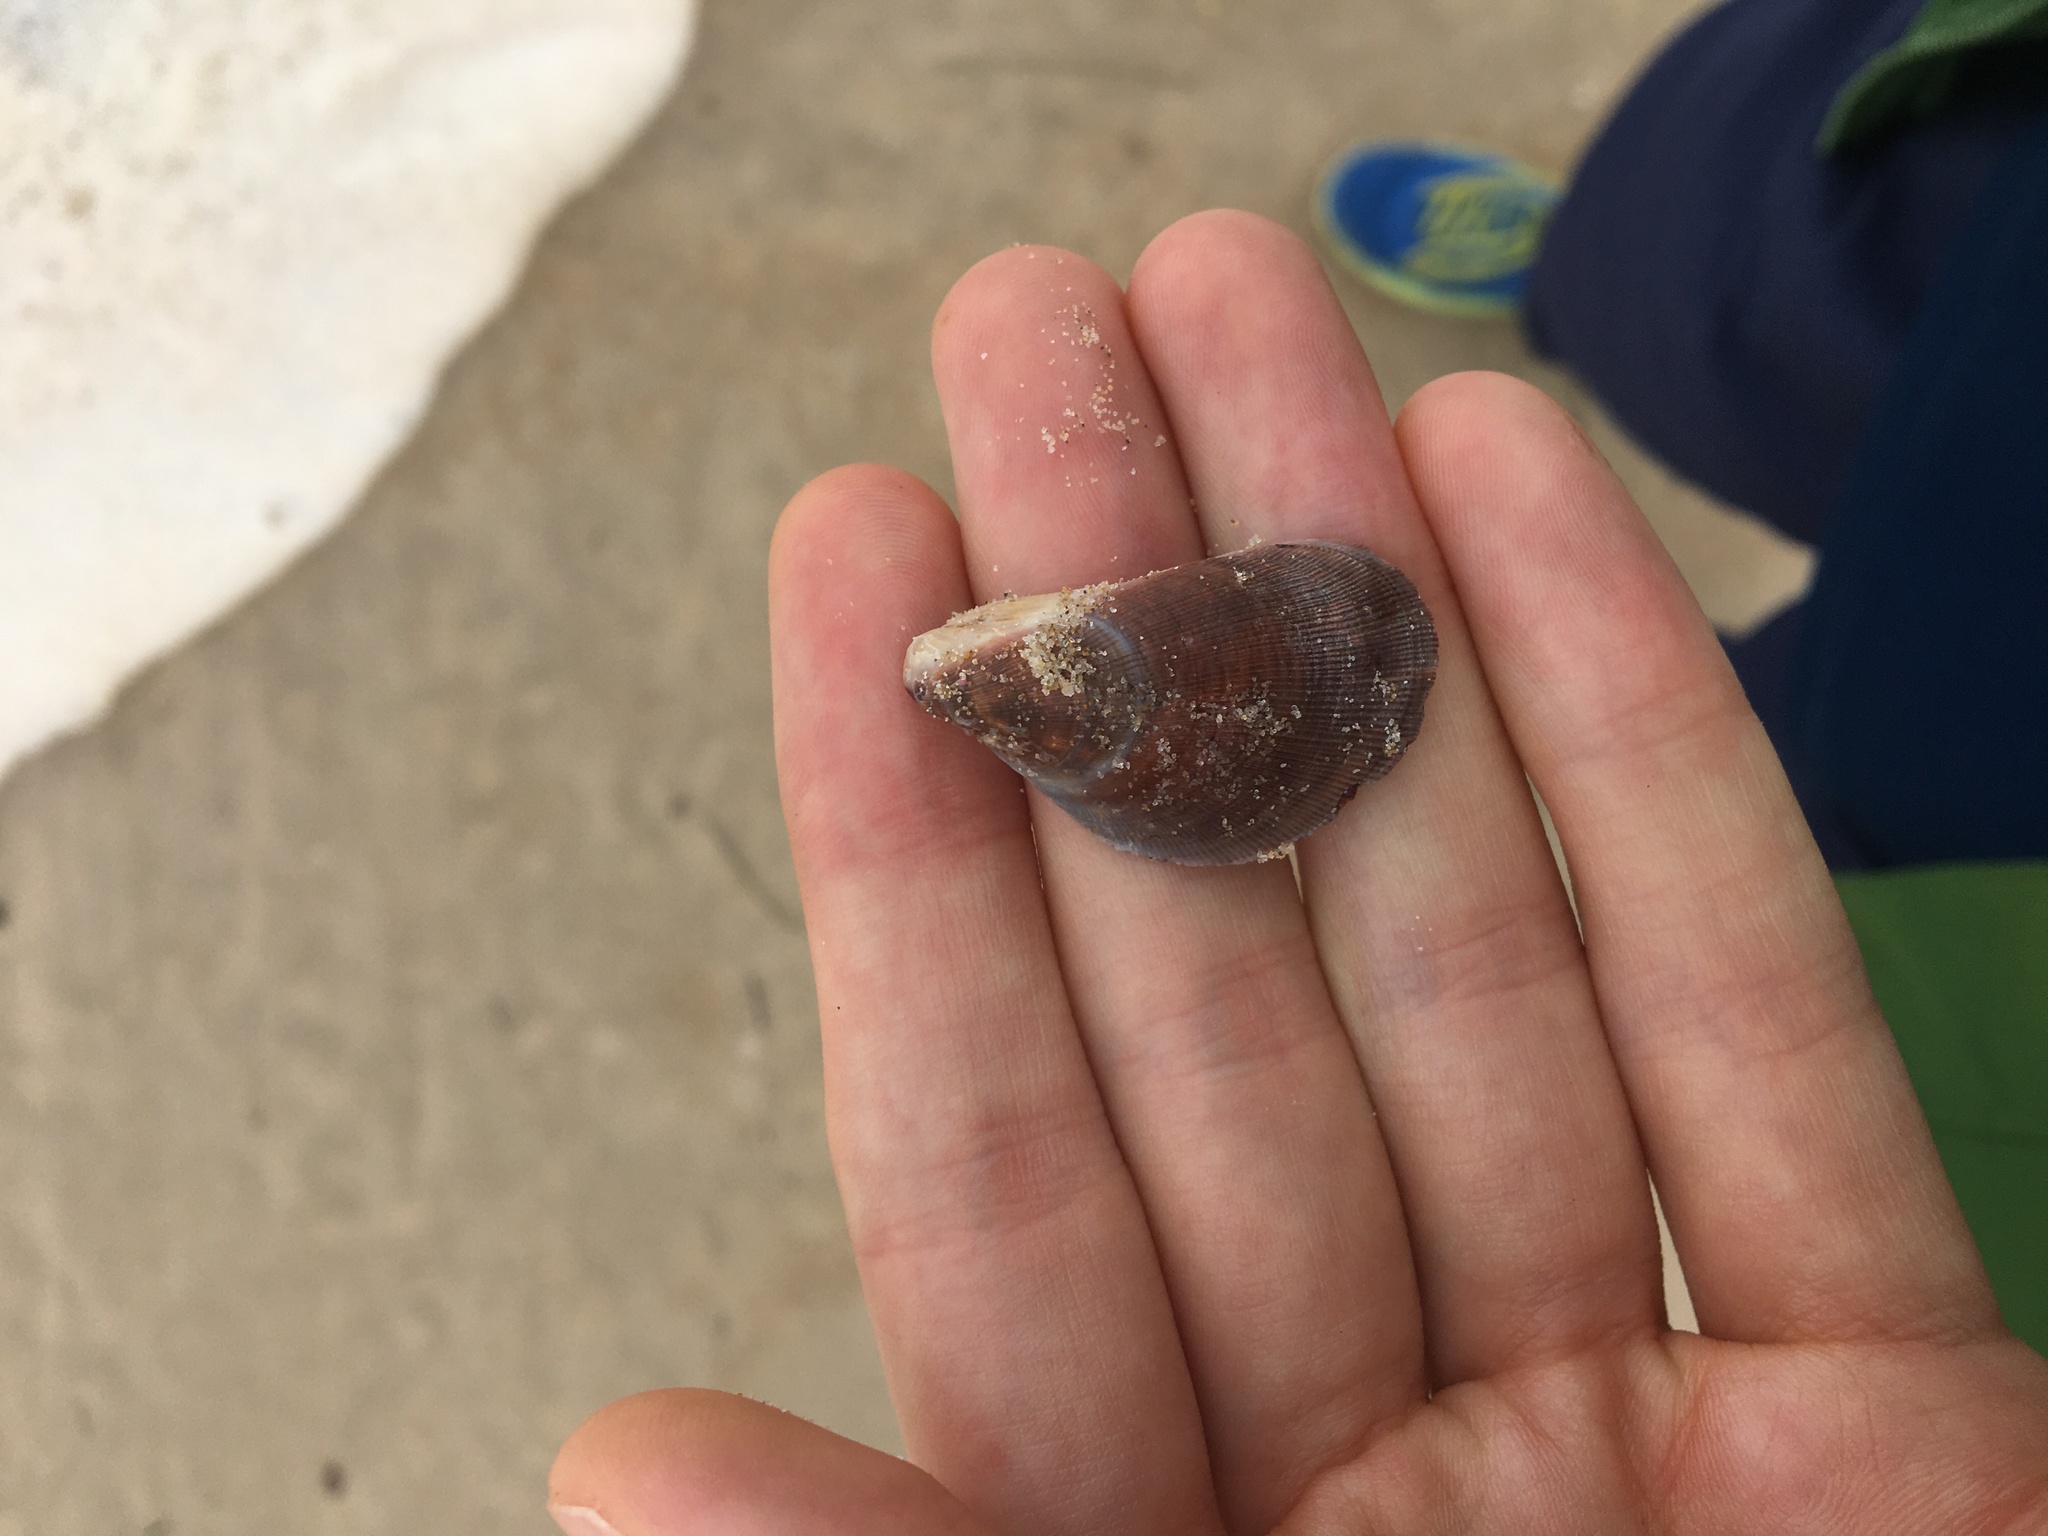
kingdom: Animalia
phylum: Mollusca
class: Bivalvia
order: Mytilida
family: Mytilidae
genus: Trichomya
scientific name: Trichomya hirsuta
